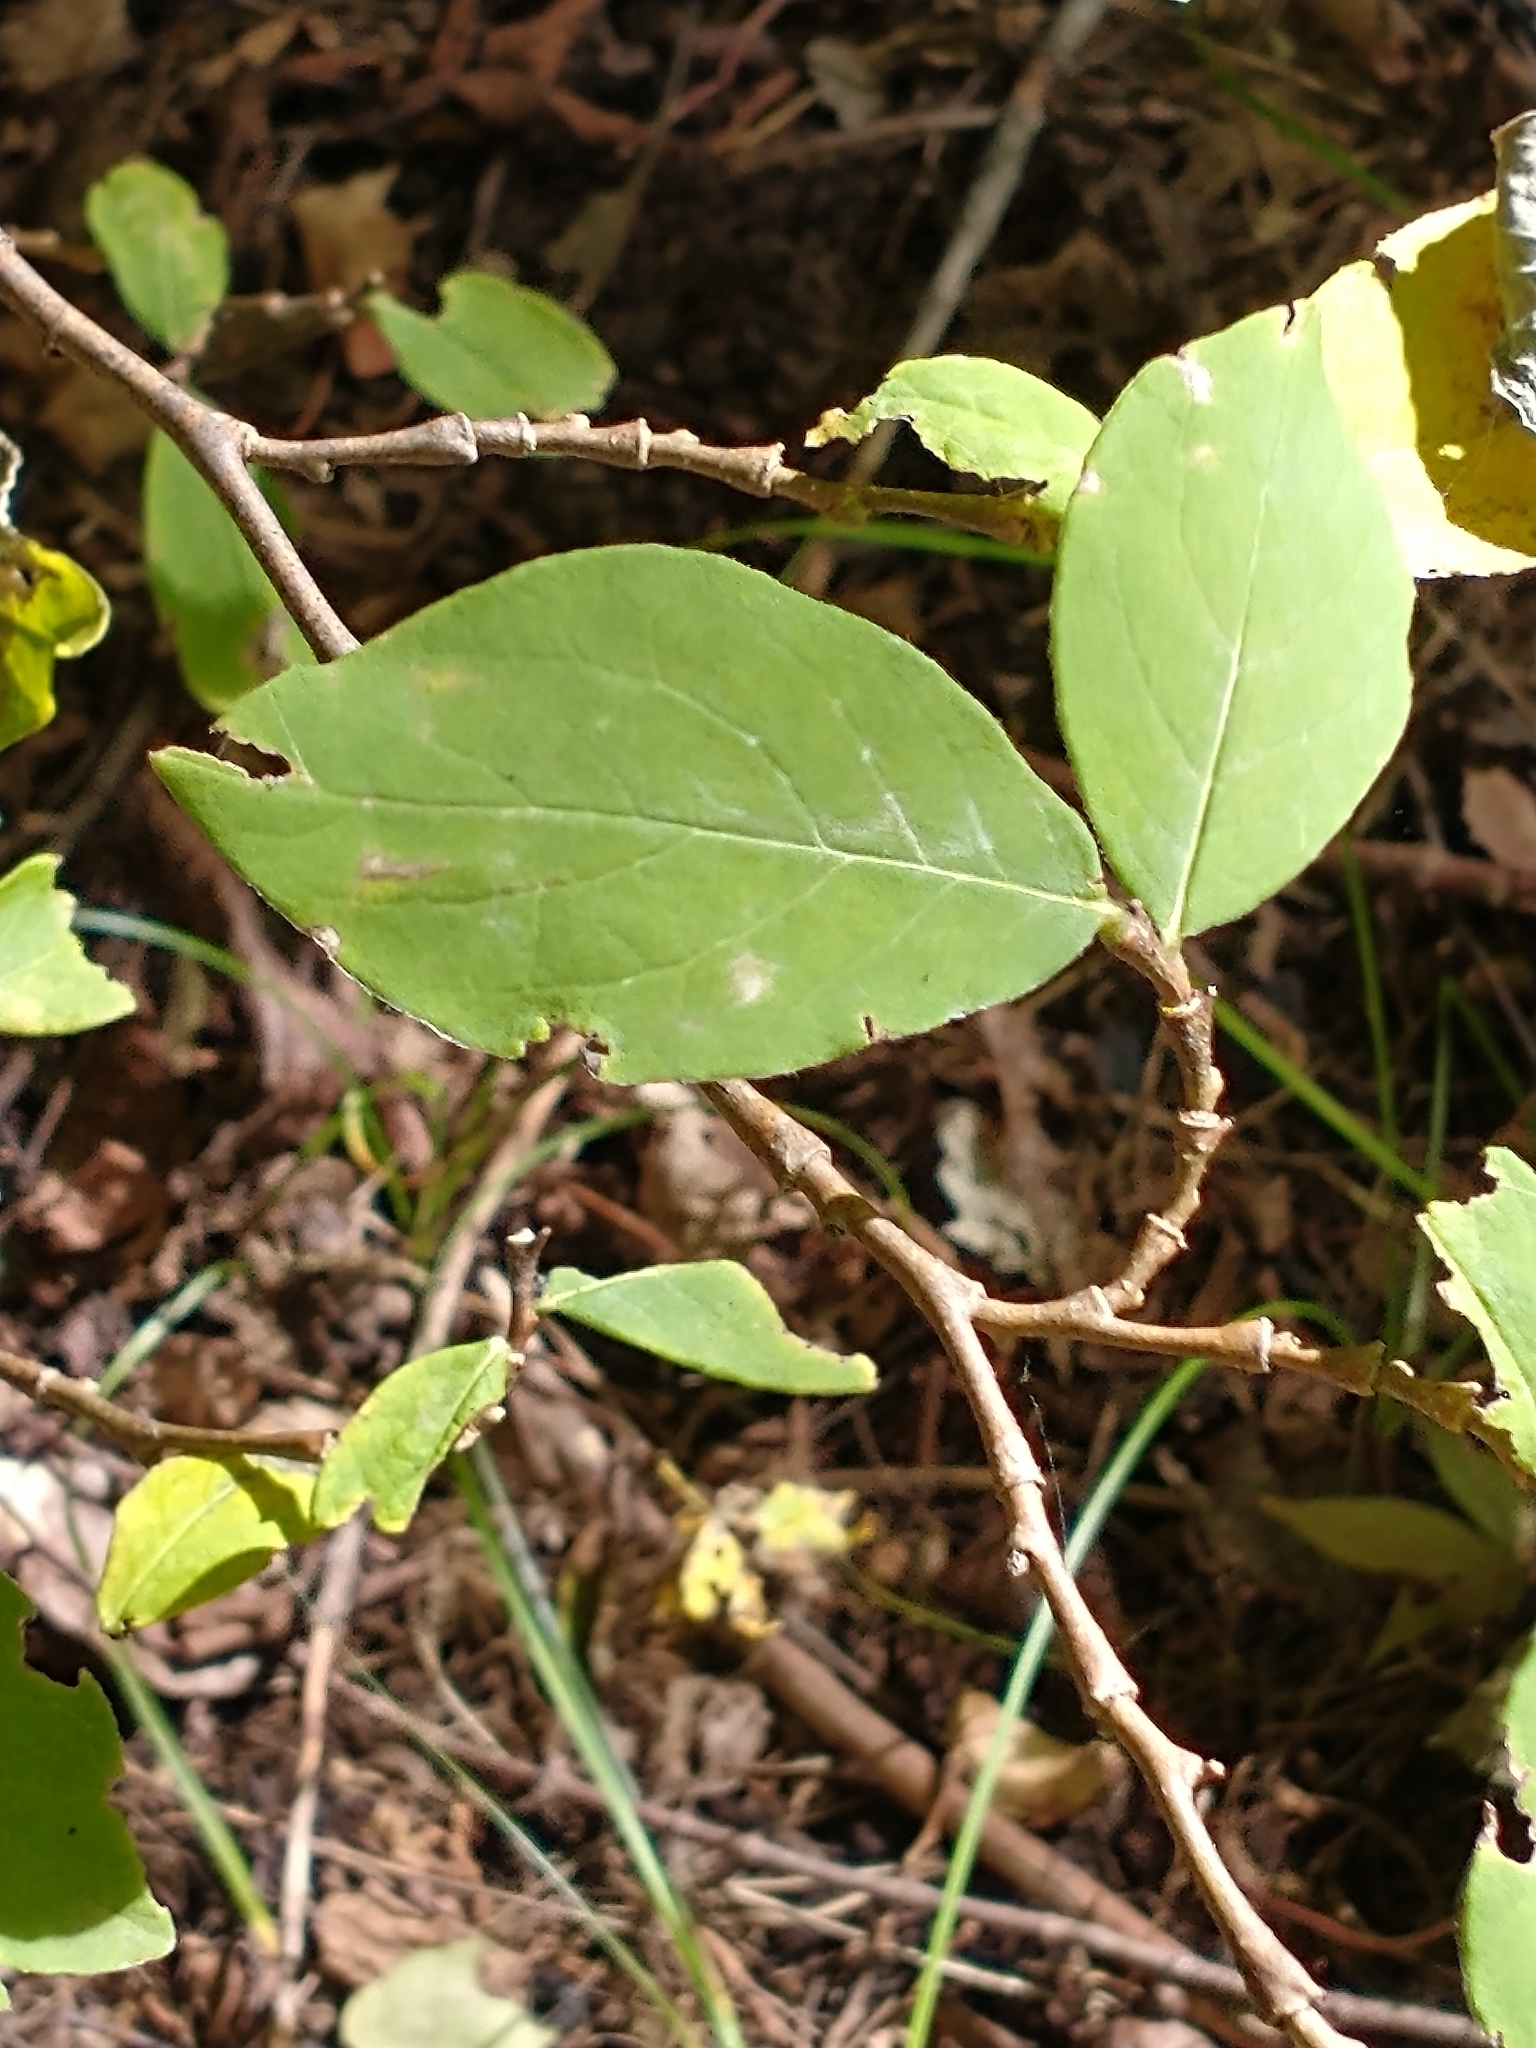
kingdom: Plantae
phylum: Tracheophyta
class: Magnoliopsida
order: Malvales
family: Thymelaeaceae
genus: Dirca
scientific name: Dirca palustris
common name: Leatherwood
